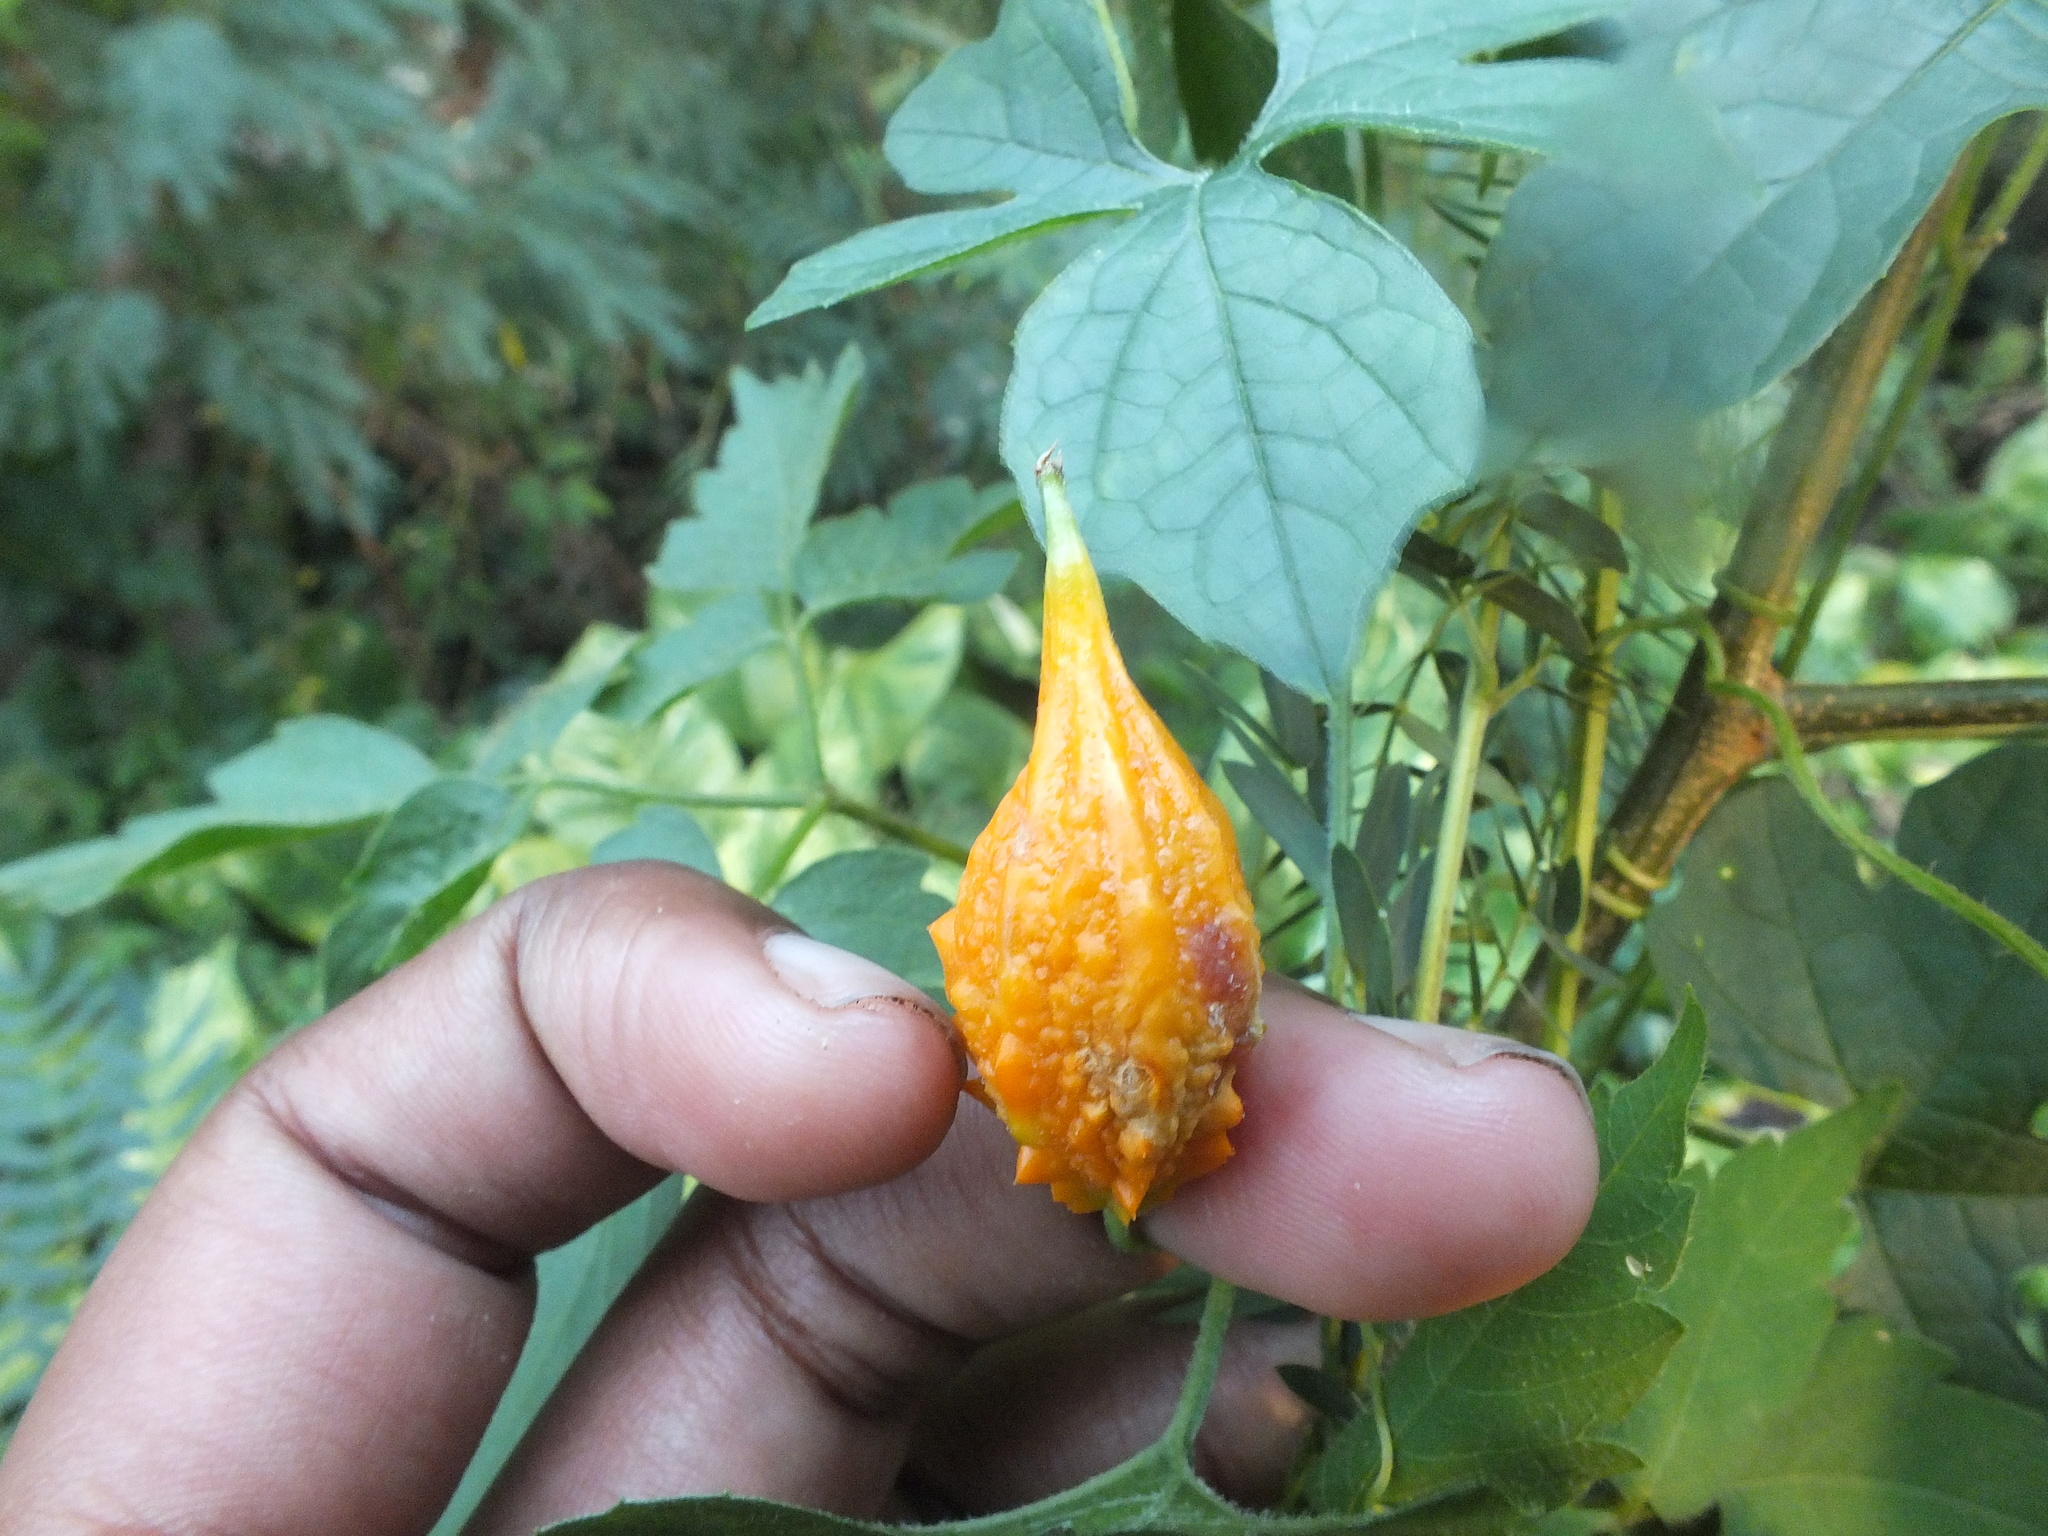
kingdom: Plantae
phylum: Tracheophyta
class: Magnoliopsida
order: Cucurbitales
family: Cucurbitaceae
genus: Momordica
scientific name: Momordica charantia
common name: Balsampear
